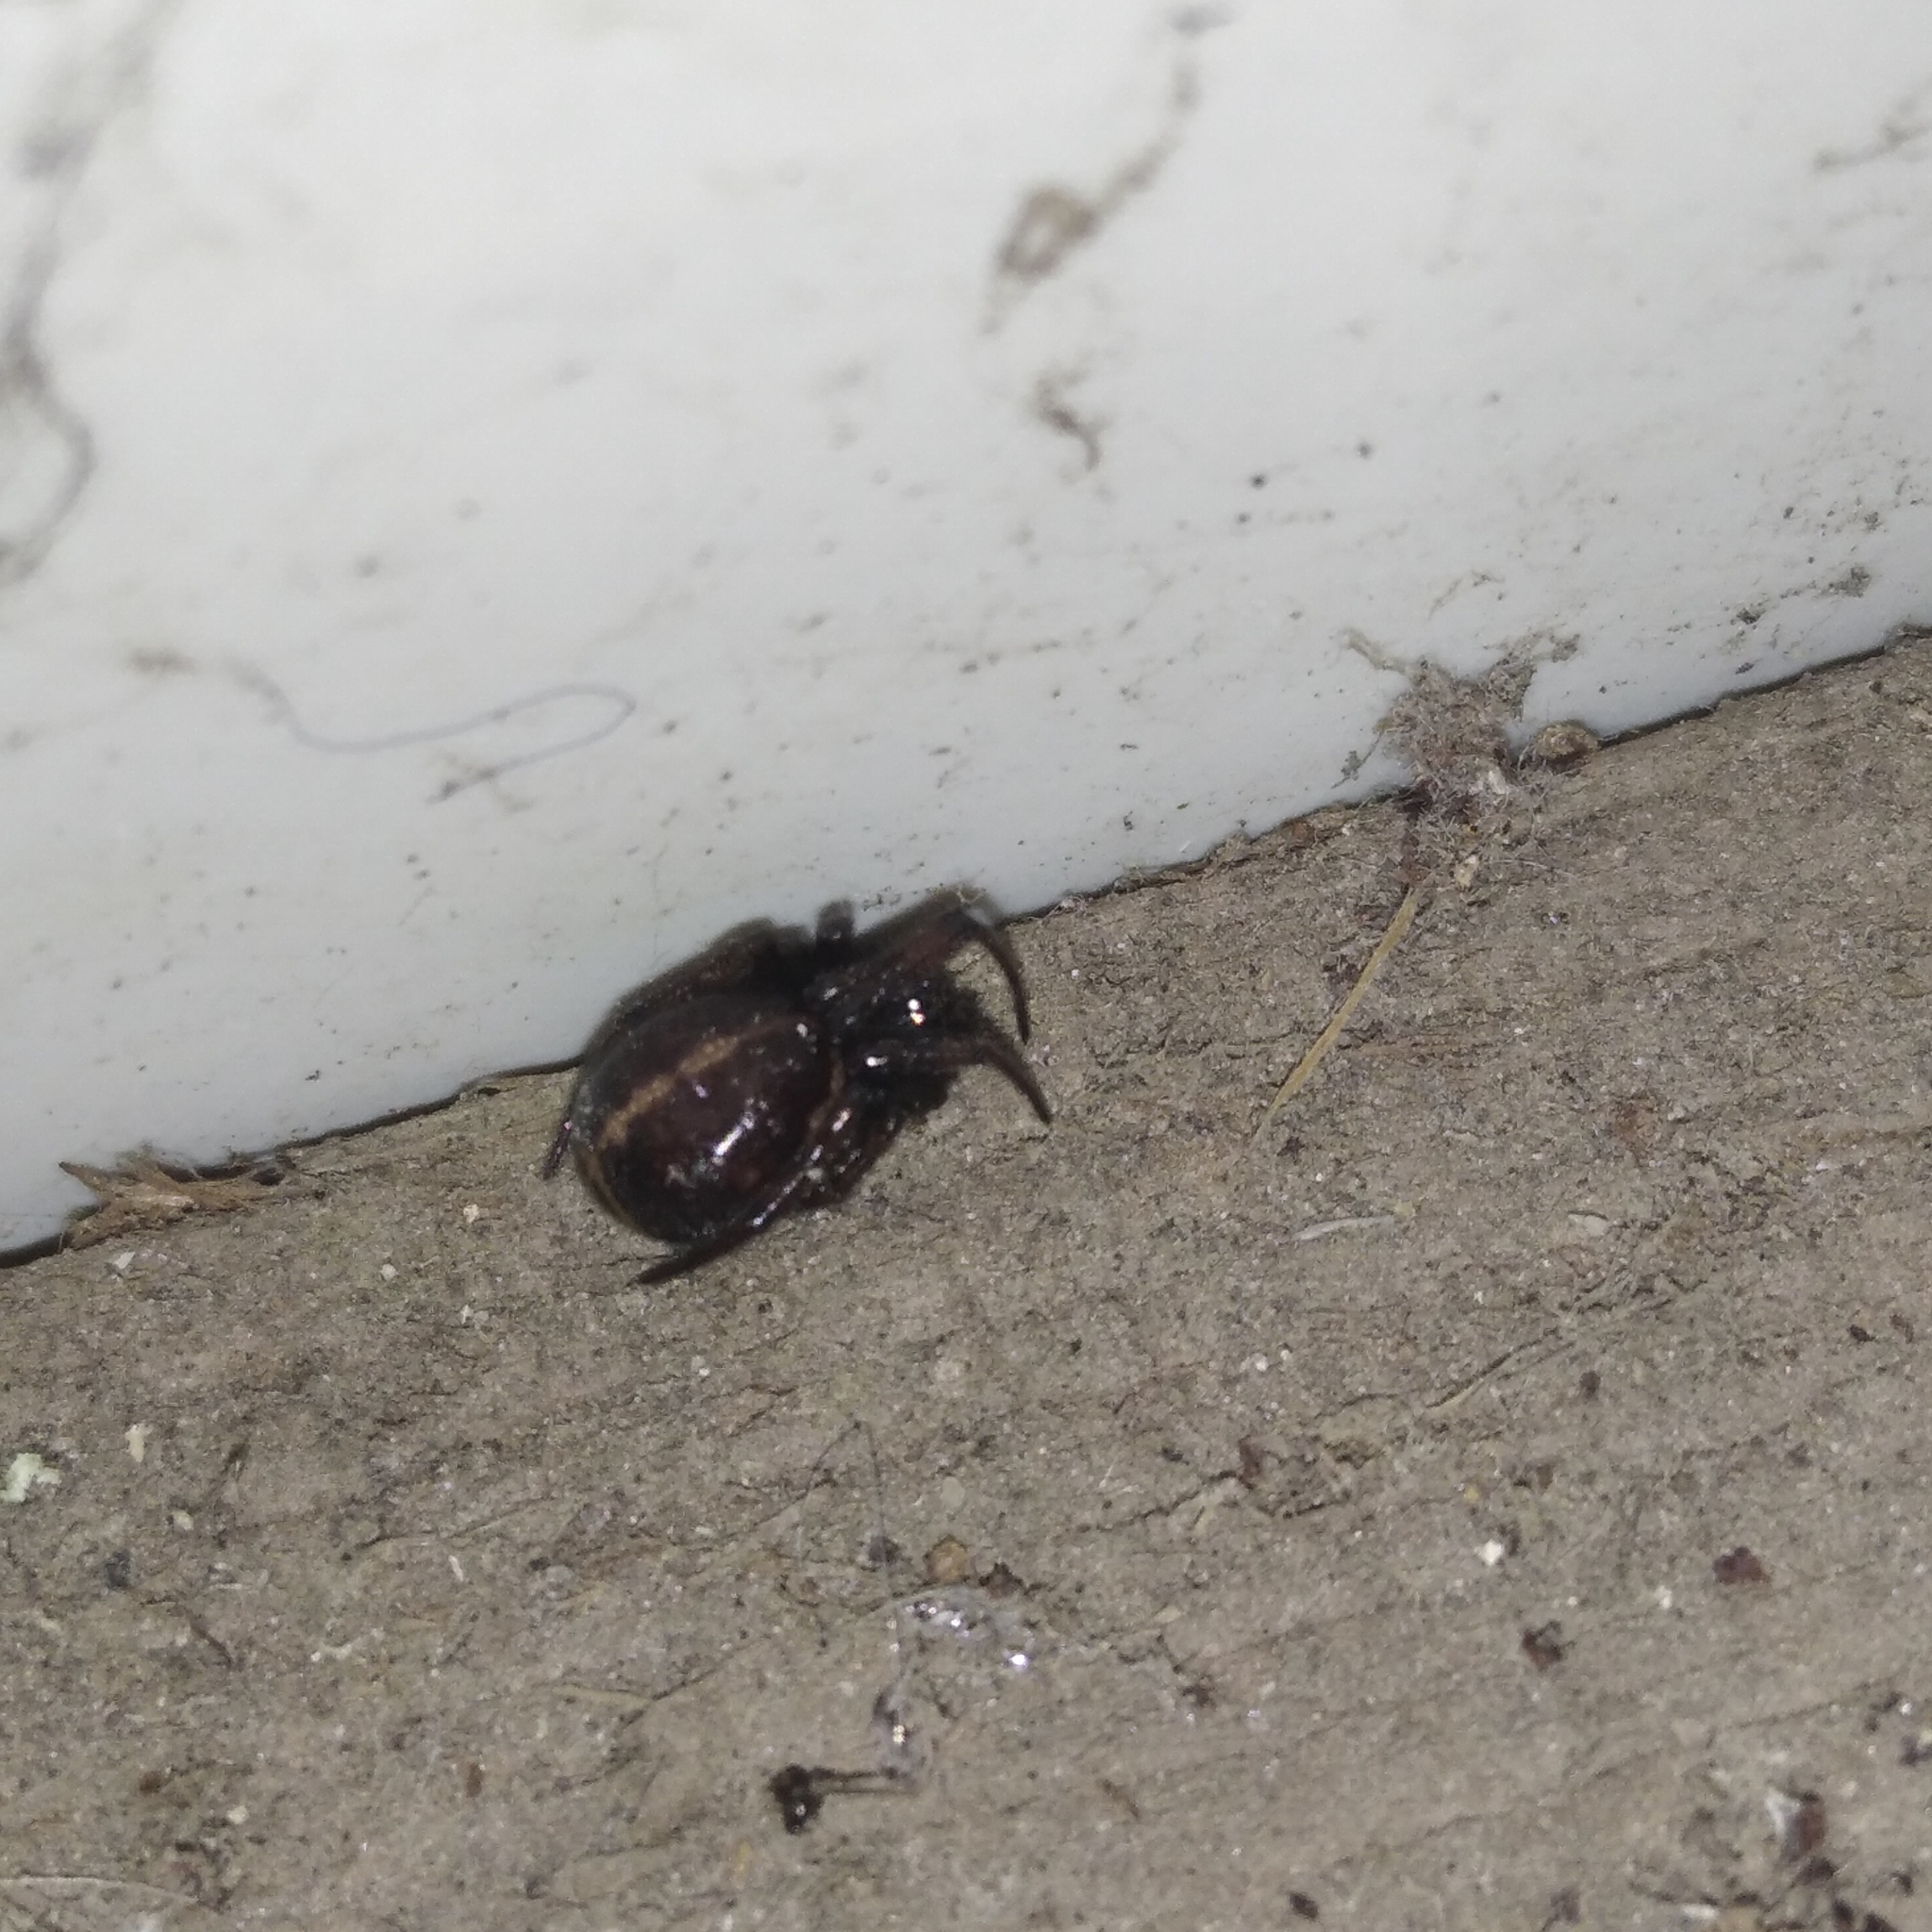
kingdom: Animalia
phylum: Arthropoda
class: Arachnida
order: Araneae
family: Theridiidae
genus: Steatoda
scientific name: Steatoda bipunctata
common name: False widow
